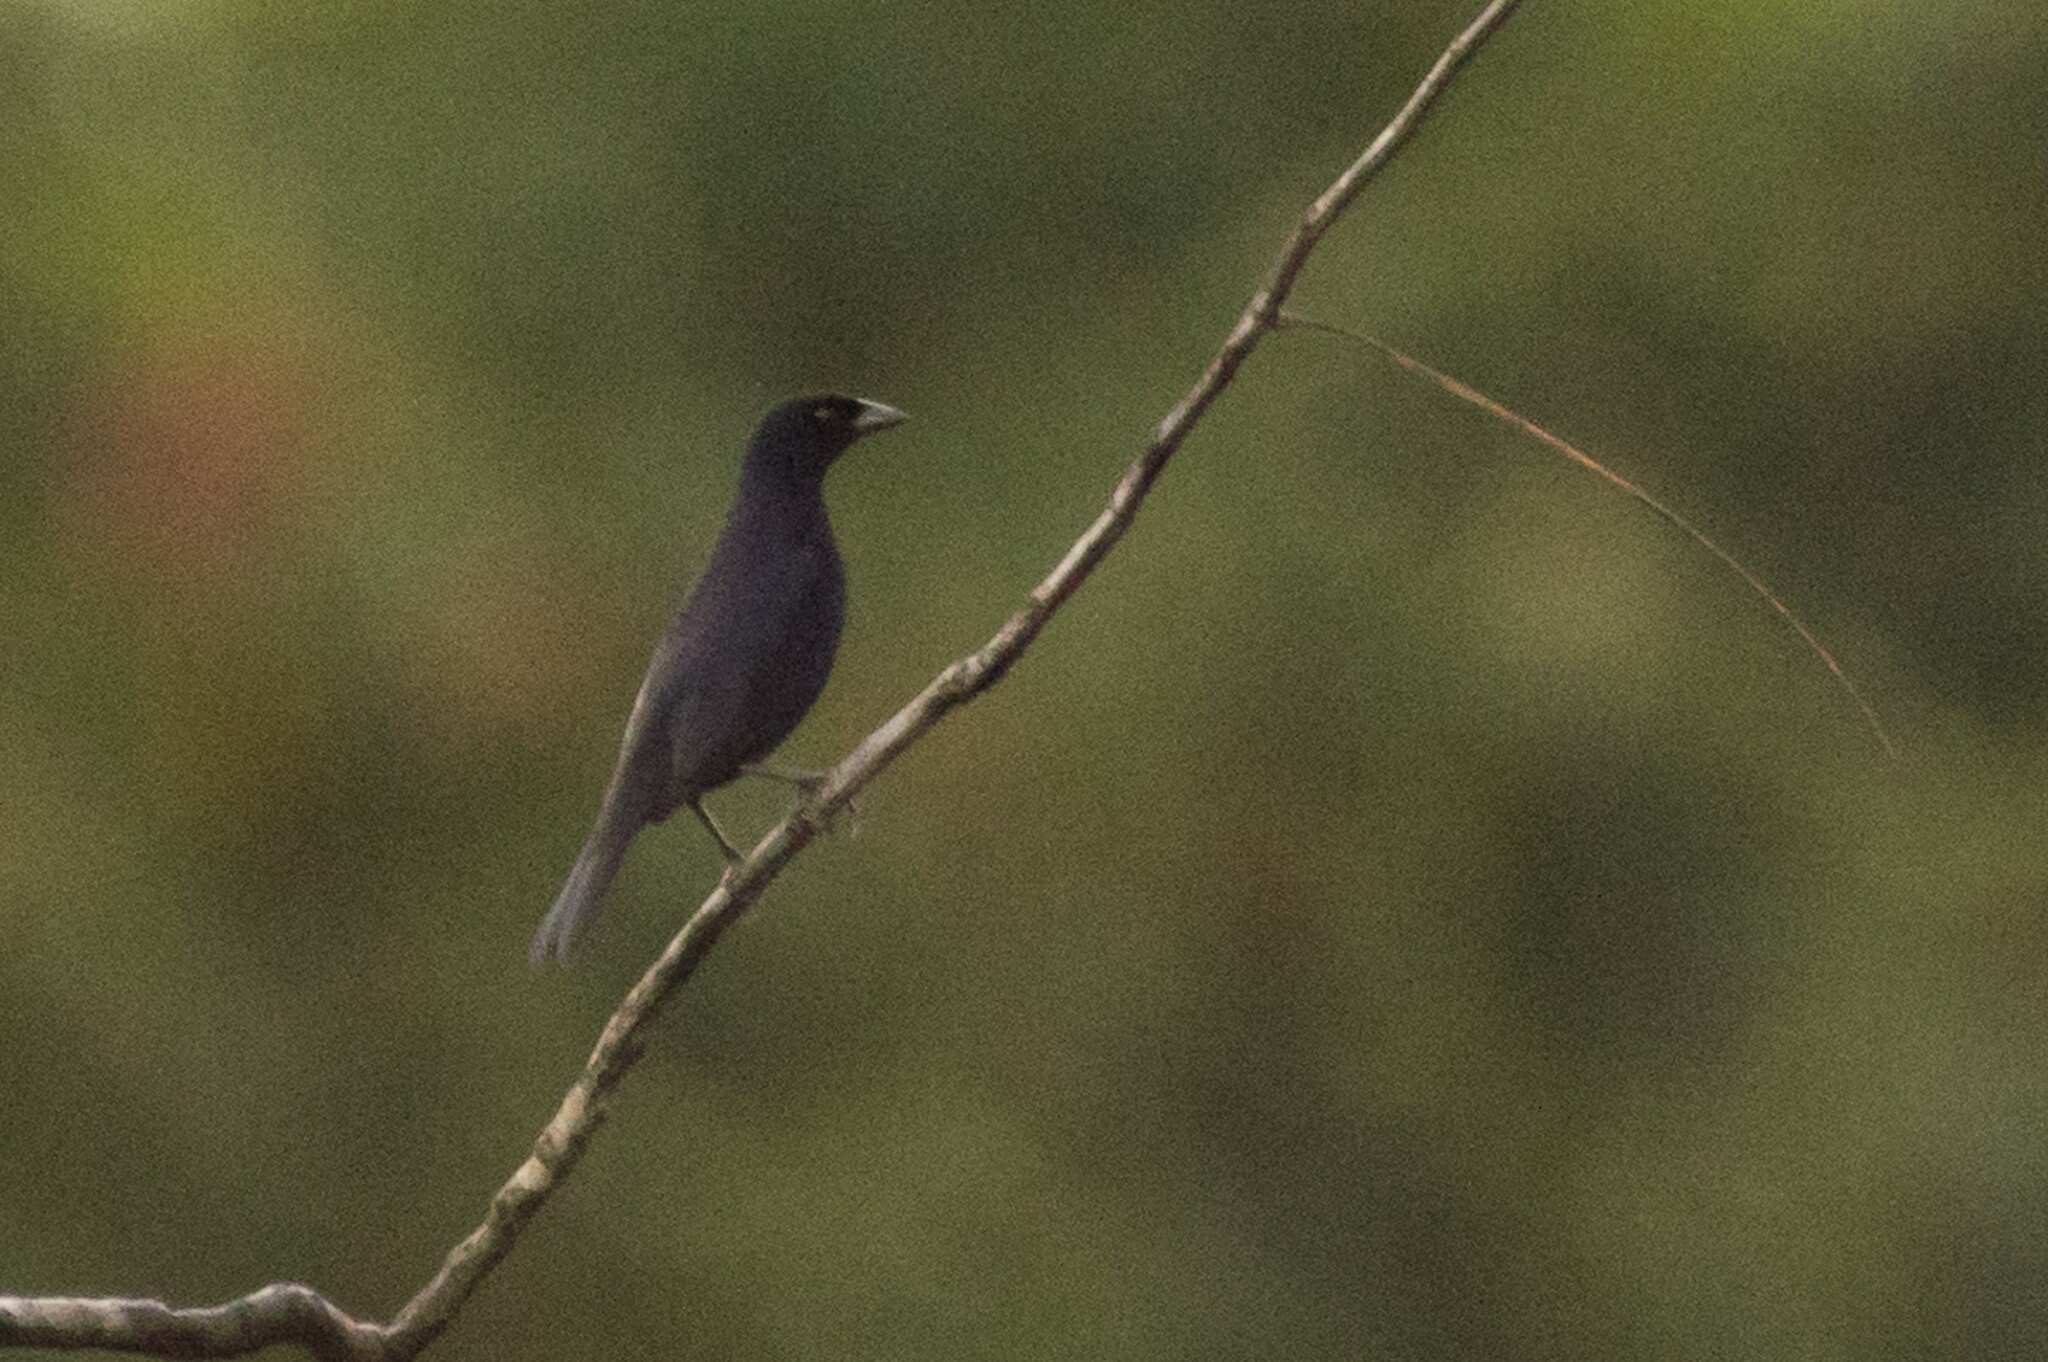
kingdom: Animalia
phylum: Chordata
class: Aves
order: Passeriformes
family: Icteridae
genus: Molothrus
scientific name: Molothrus bonariensis
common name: Shiny cowbird
